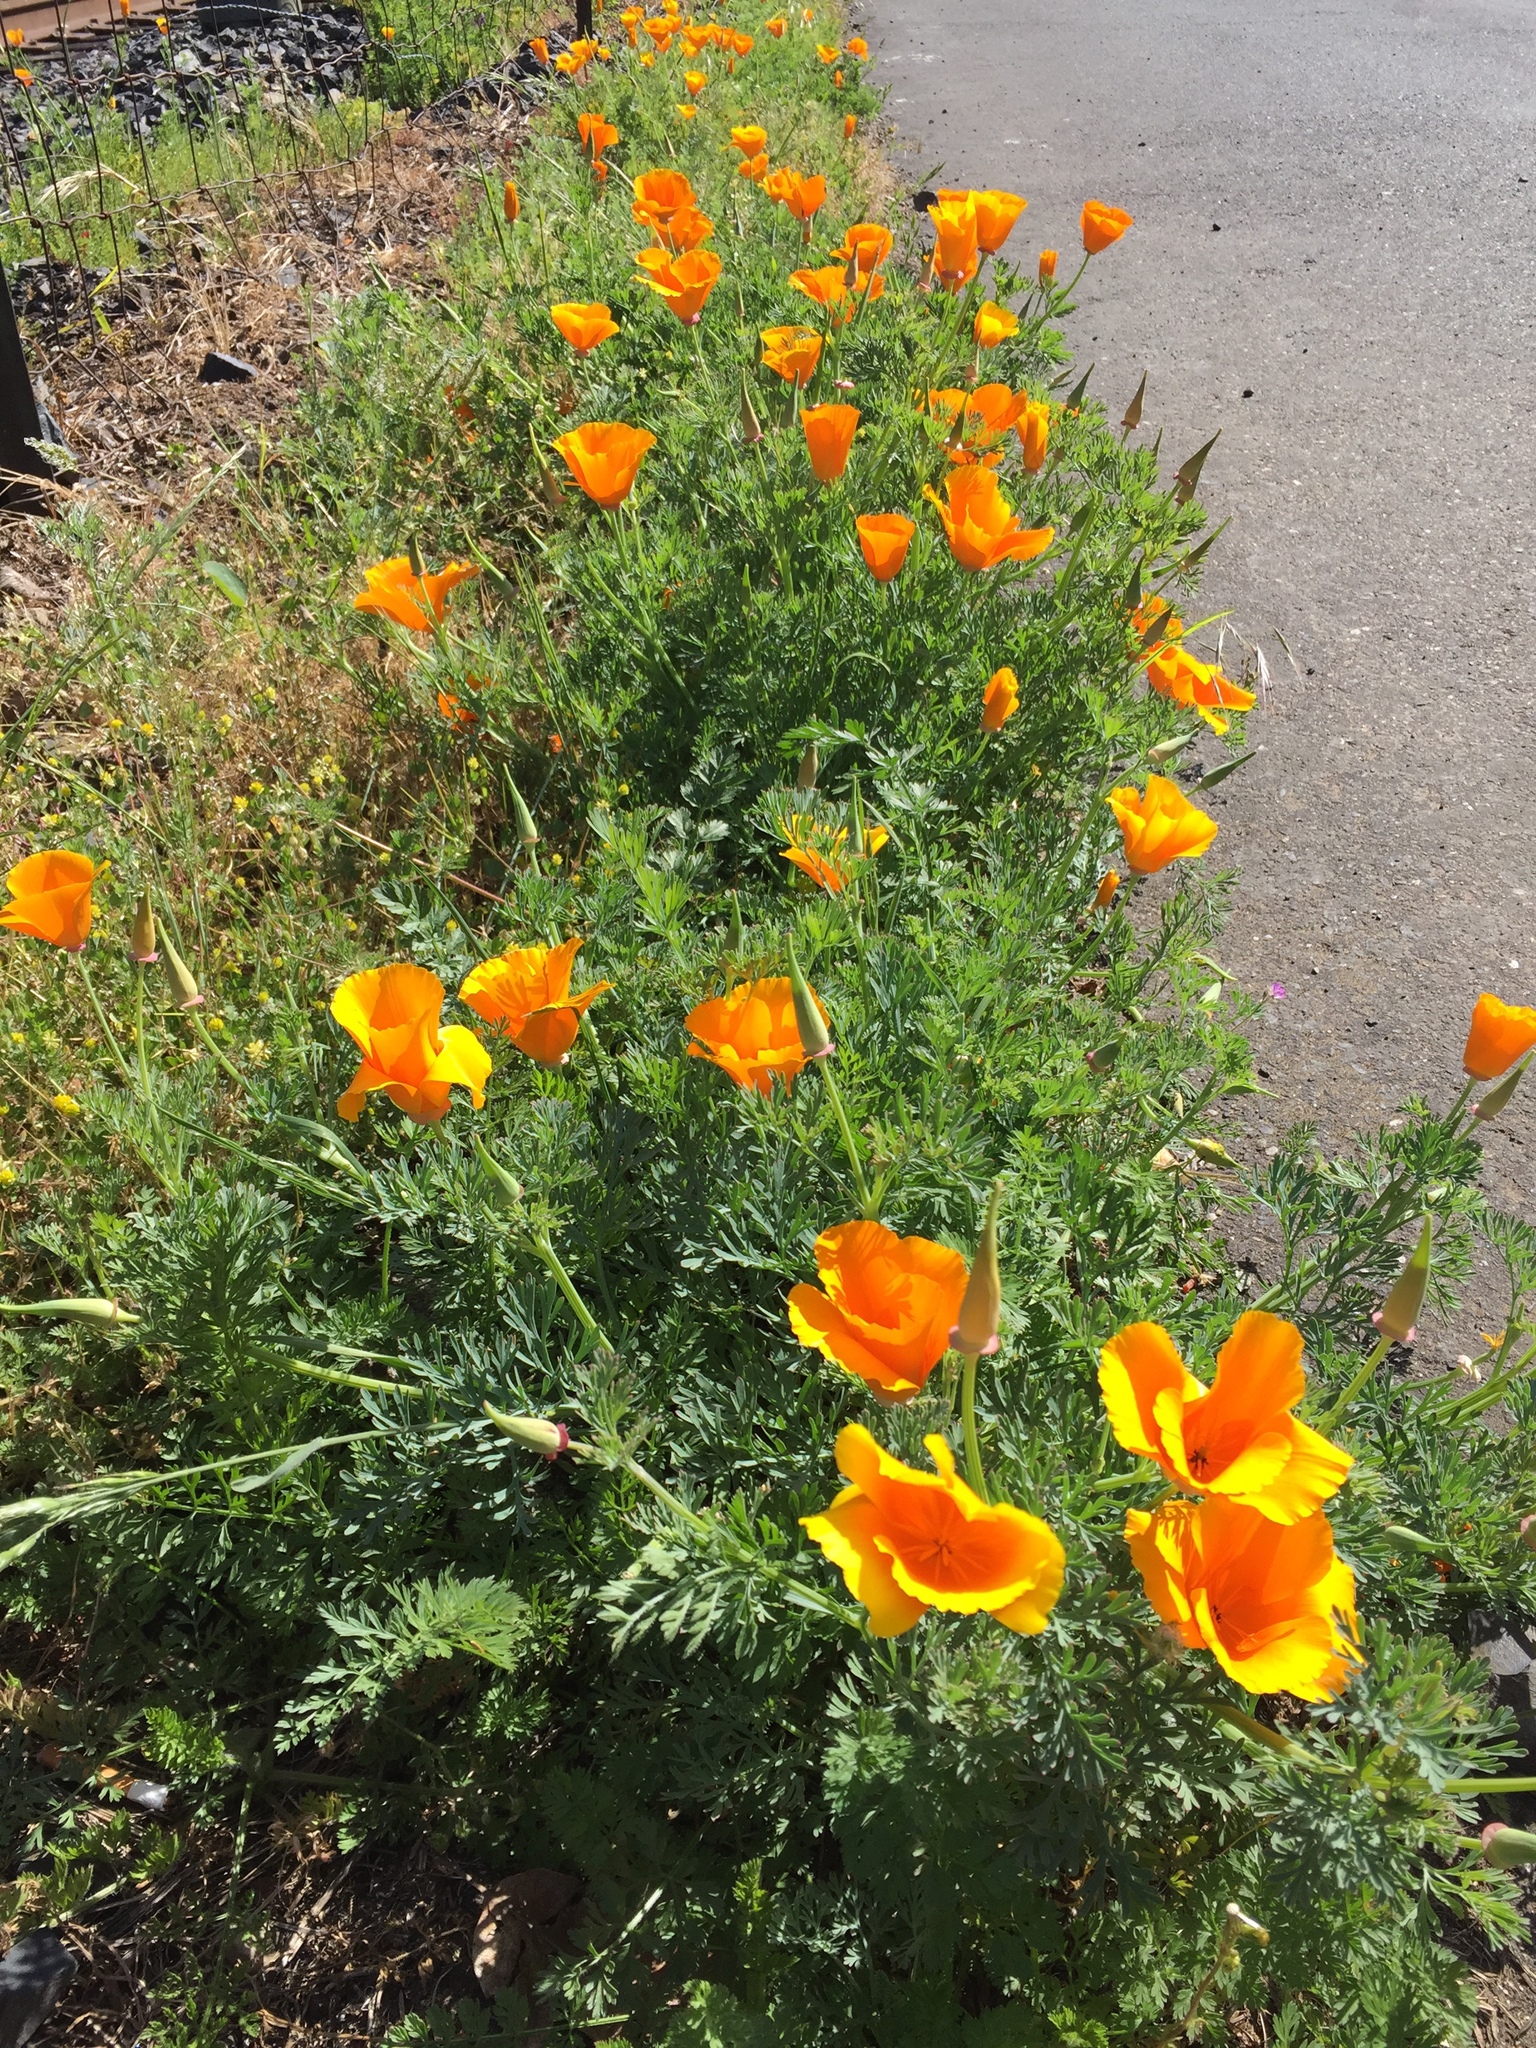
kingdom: Plantae
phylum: Tracheophyta
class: Magnoliopsida
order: Ranunculales
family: Papaveraceae
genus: Eschscholzia
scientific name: Eschscholzia californica
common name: California poppy
